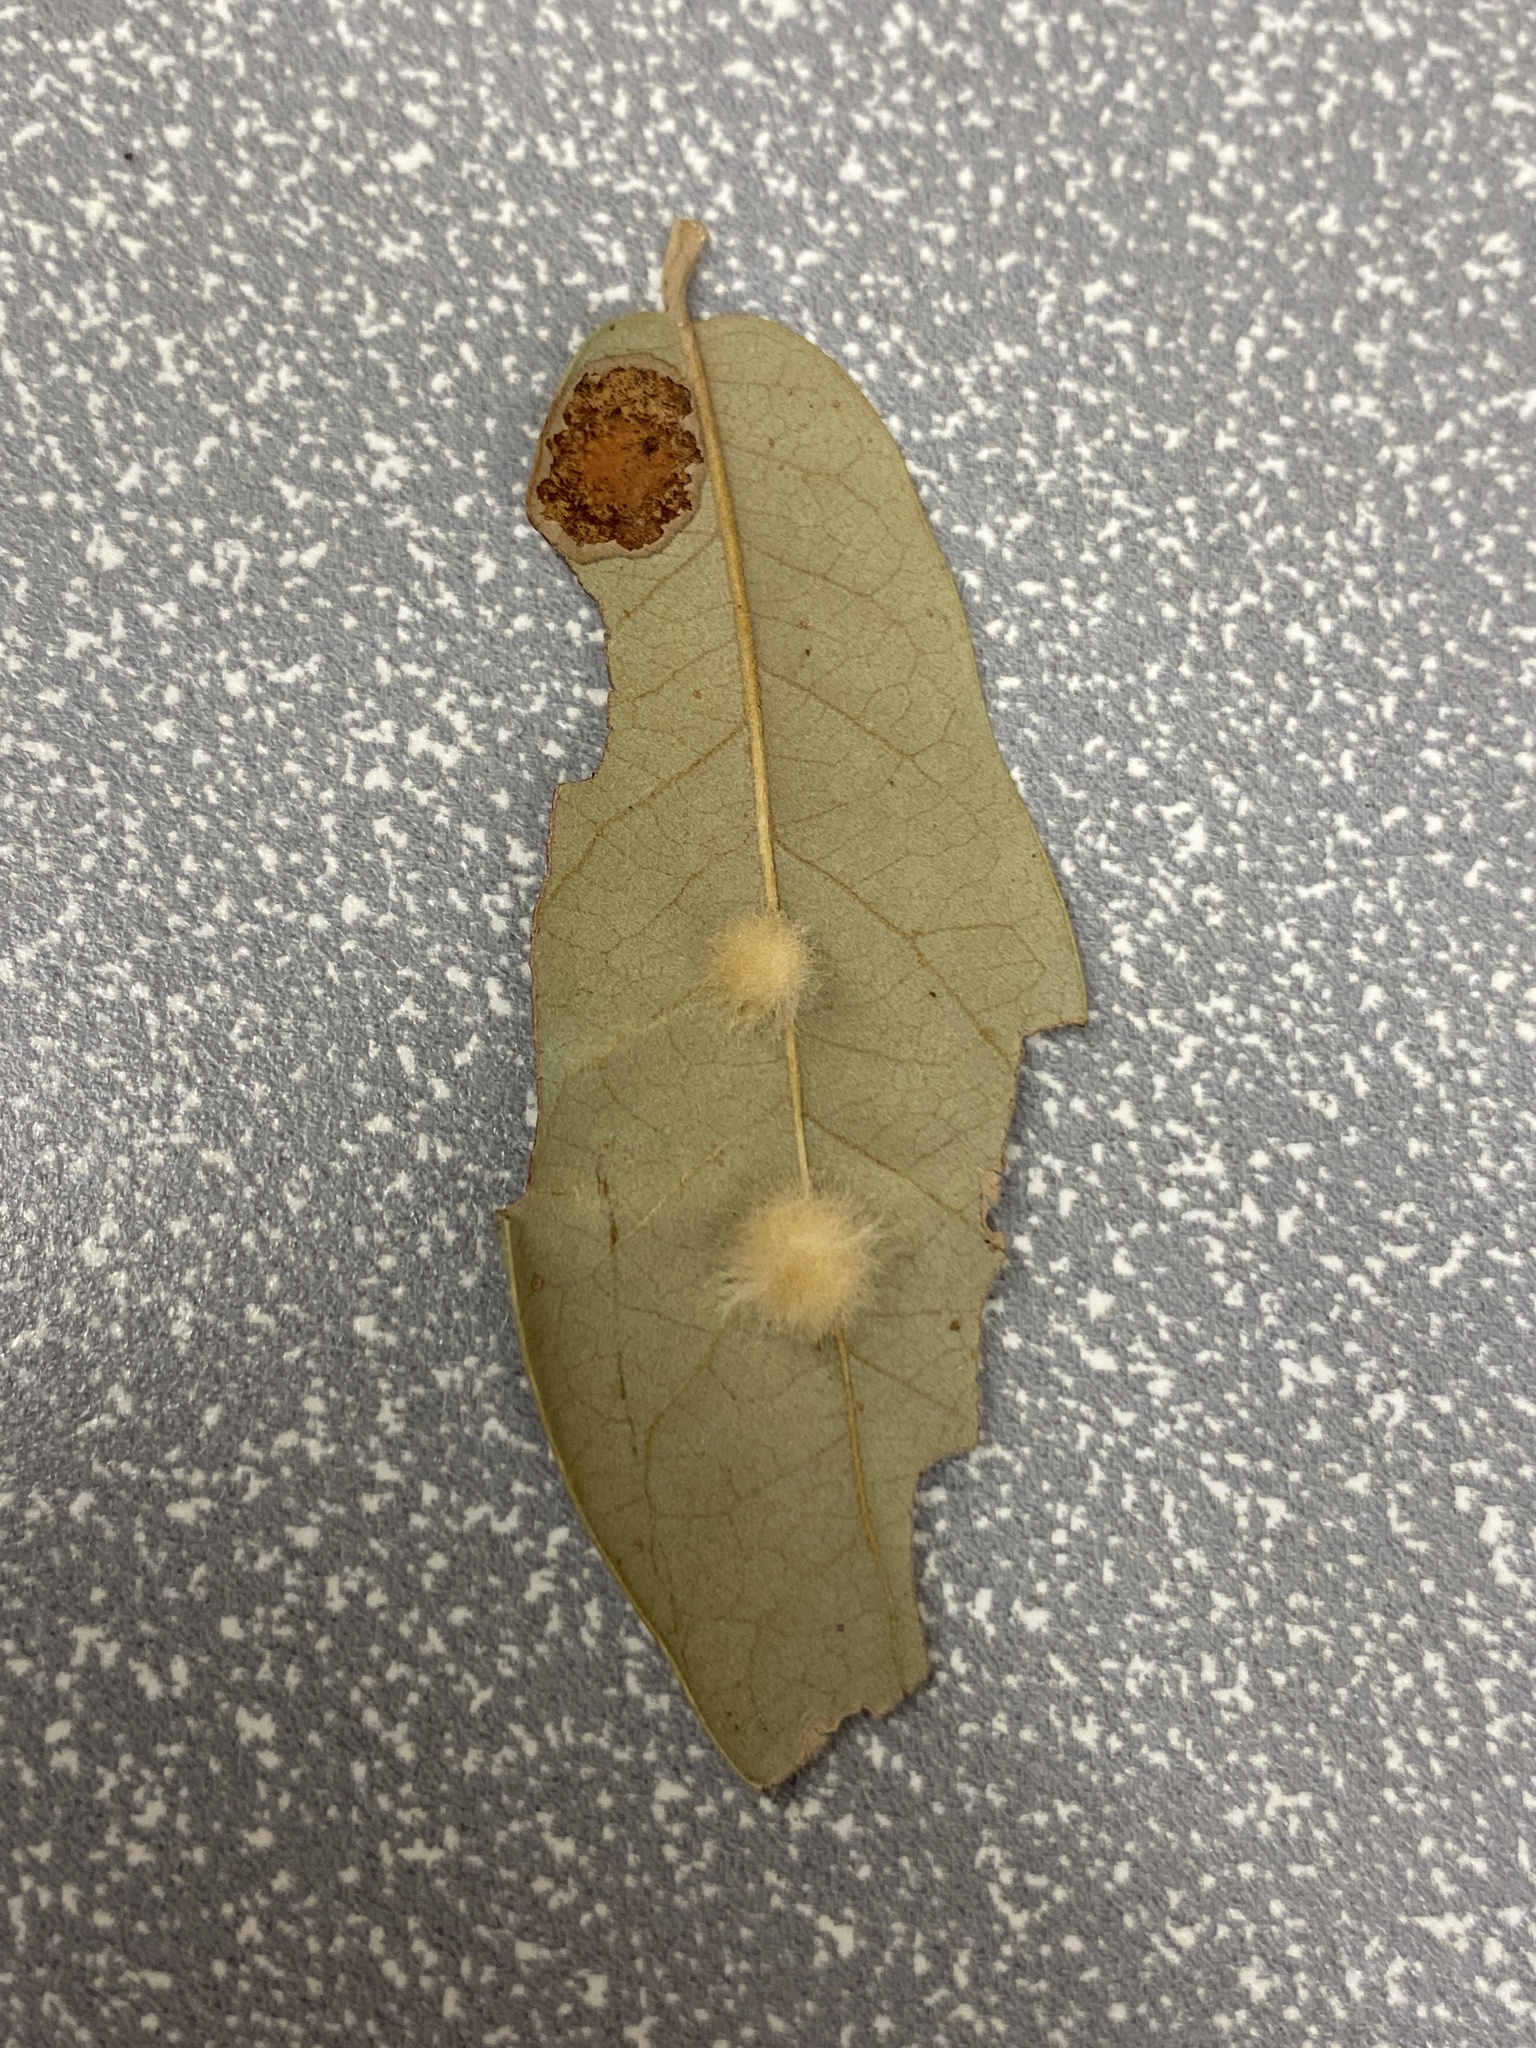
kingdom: Animalia
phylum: Arthropoda
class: Insecta
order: Hymenoptera
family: Cynipidae
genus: Andricus
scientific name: Andricus Druon quercuslanigerum
